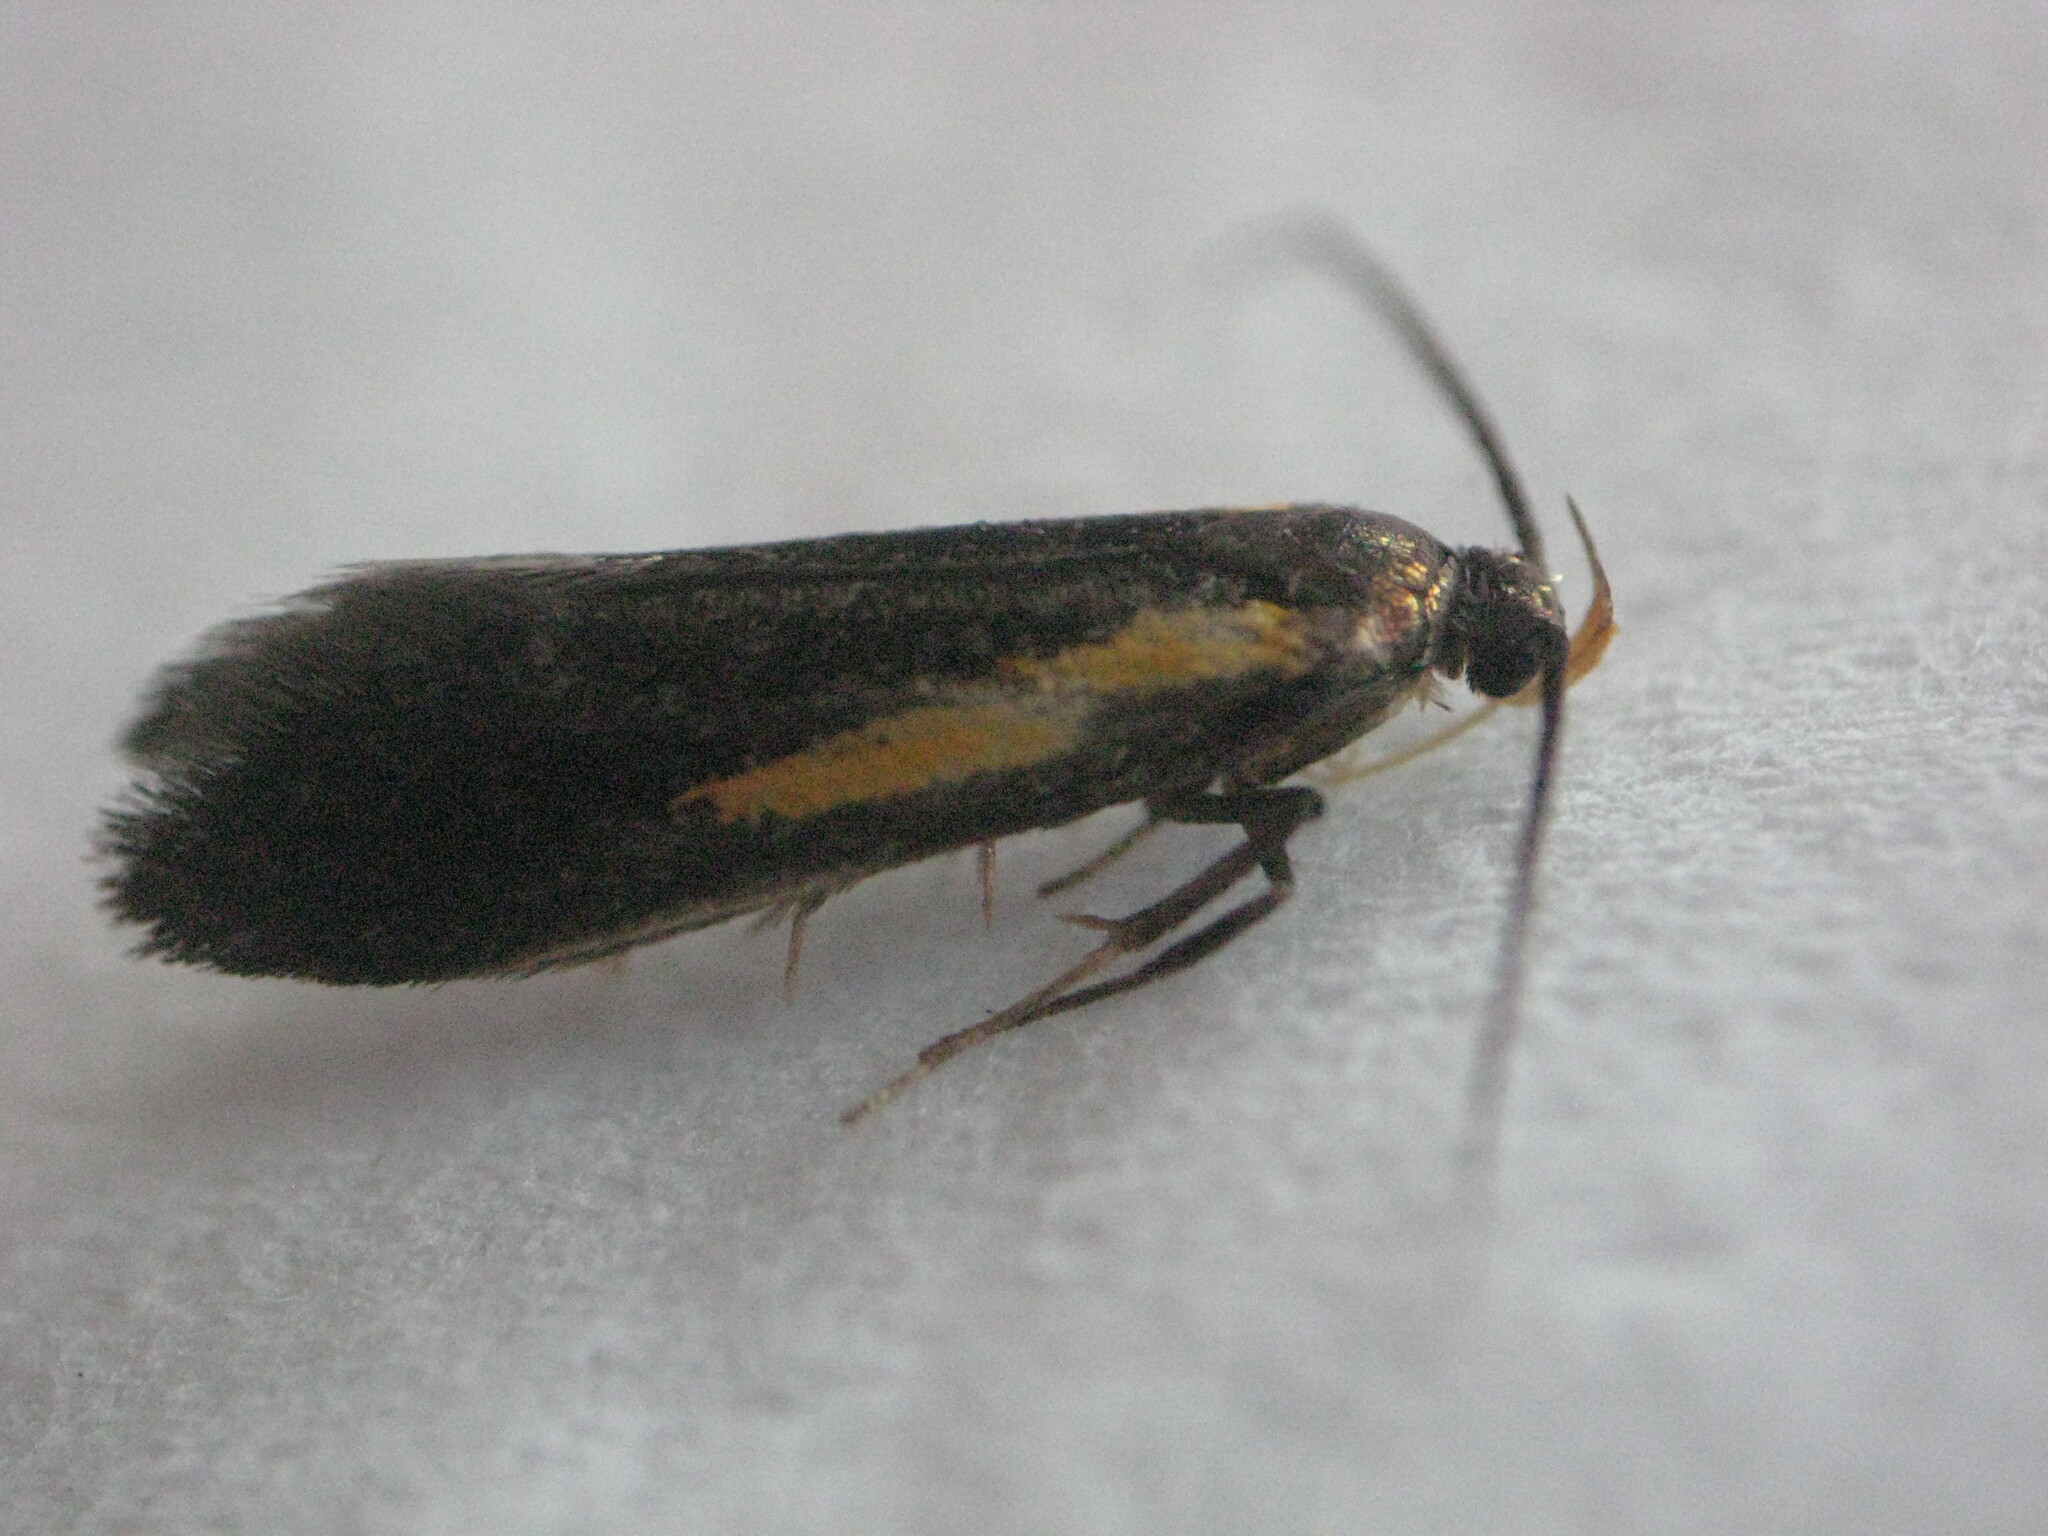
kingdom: Animalia
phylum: Arthropoda
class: Insecta
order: Lepidoptera
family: Oecophoridae
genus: Mathildana
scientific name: Mathildana newmanella
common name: Newman's mathildana moth
